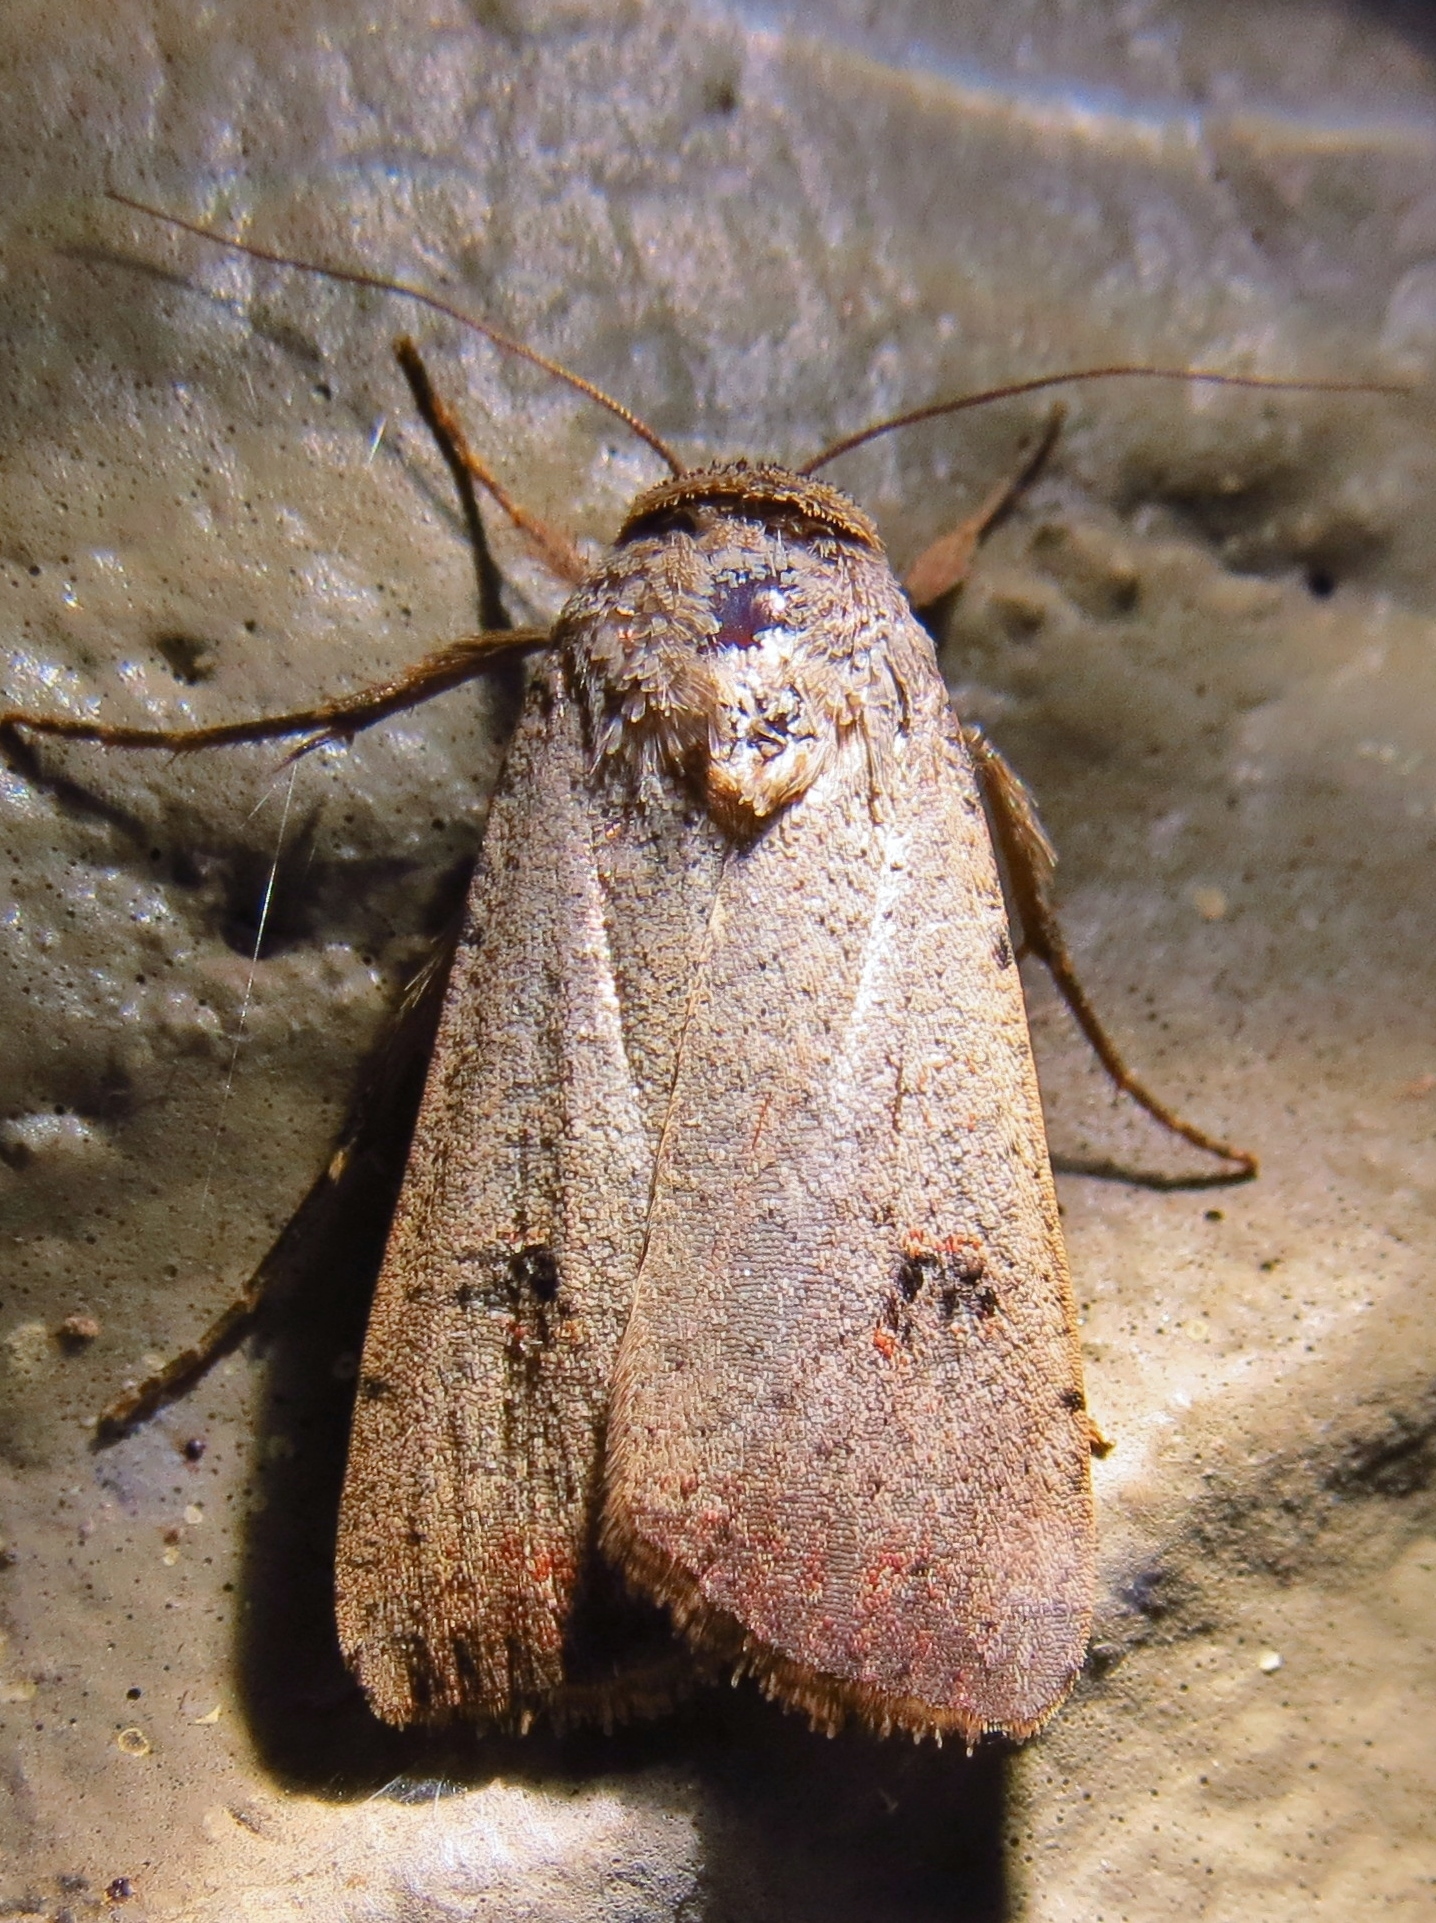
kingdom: Animalia
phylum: Arthropoda
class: Insecta
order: Lepidoptera
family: Noctuidae
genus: Anicla
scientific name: Anicla infecta
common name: Green cutworm
